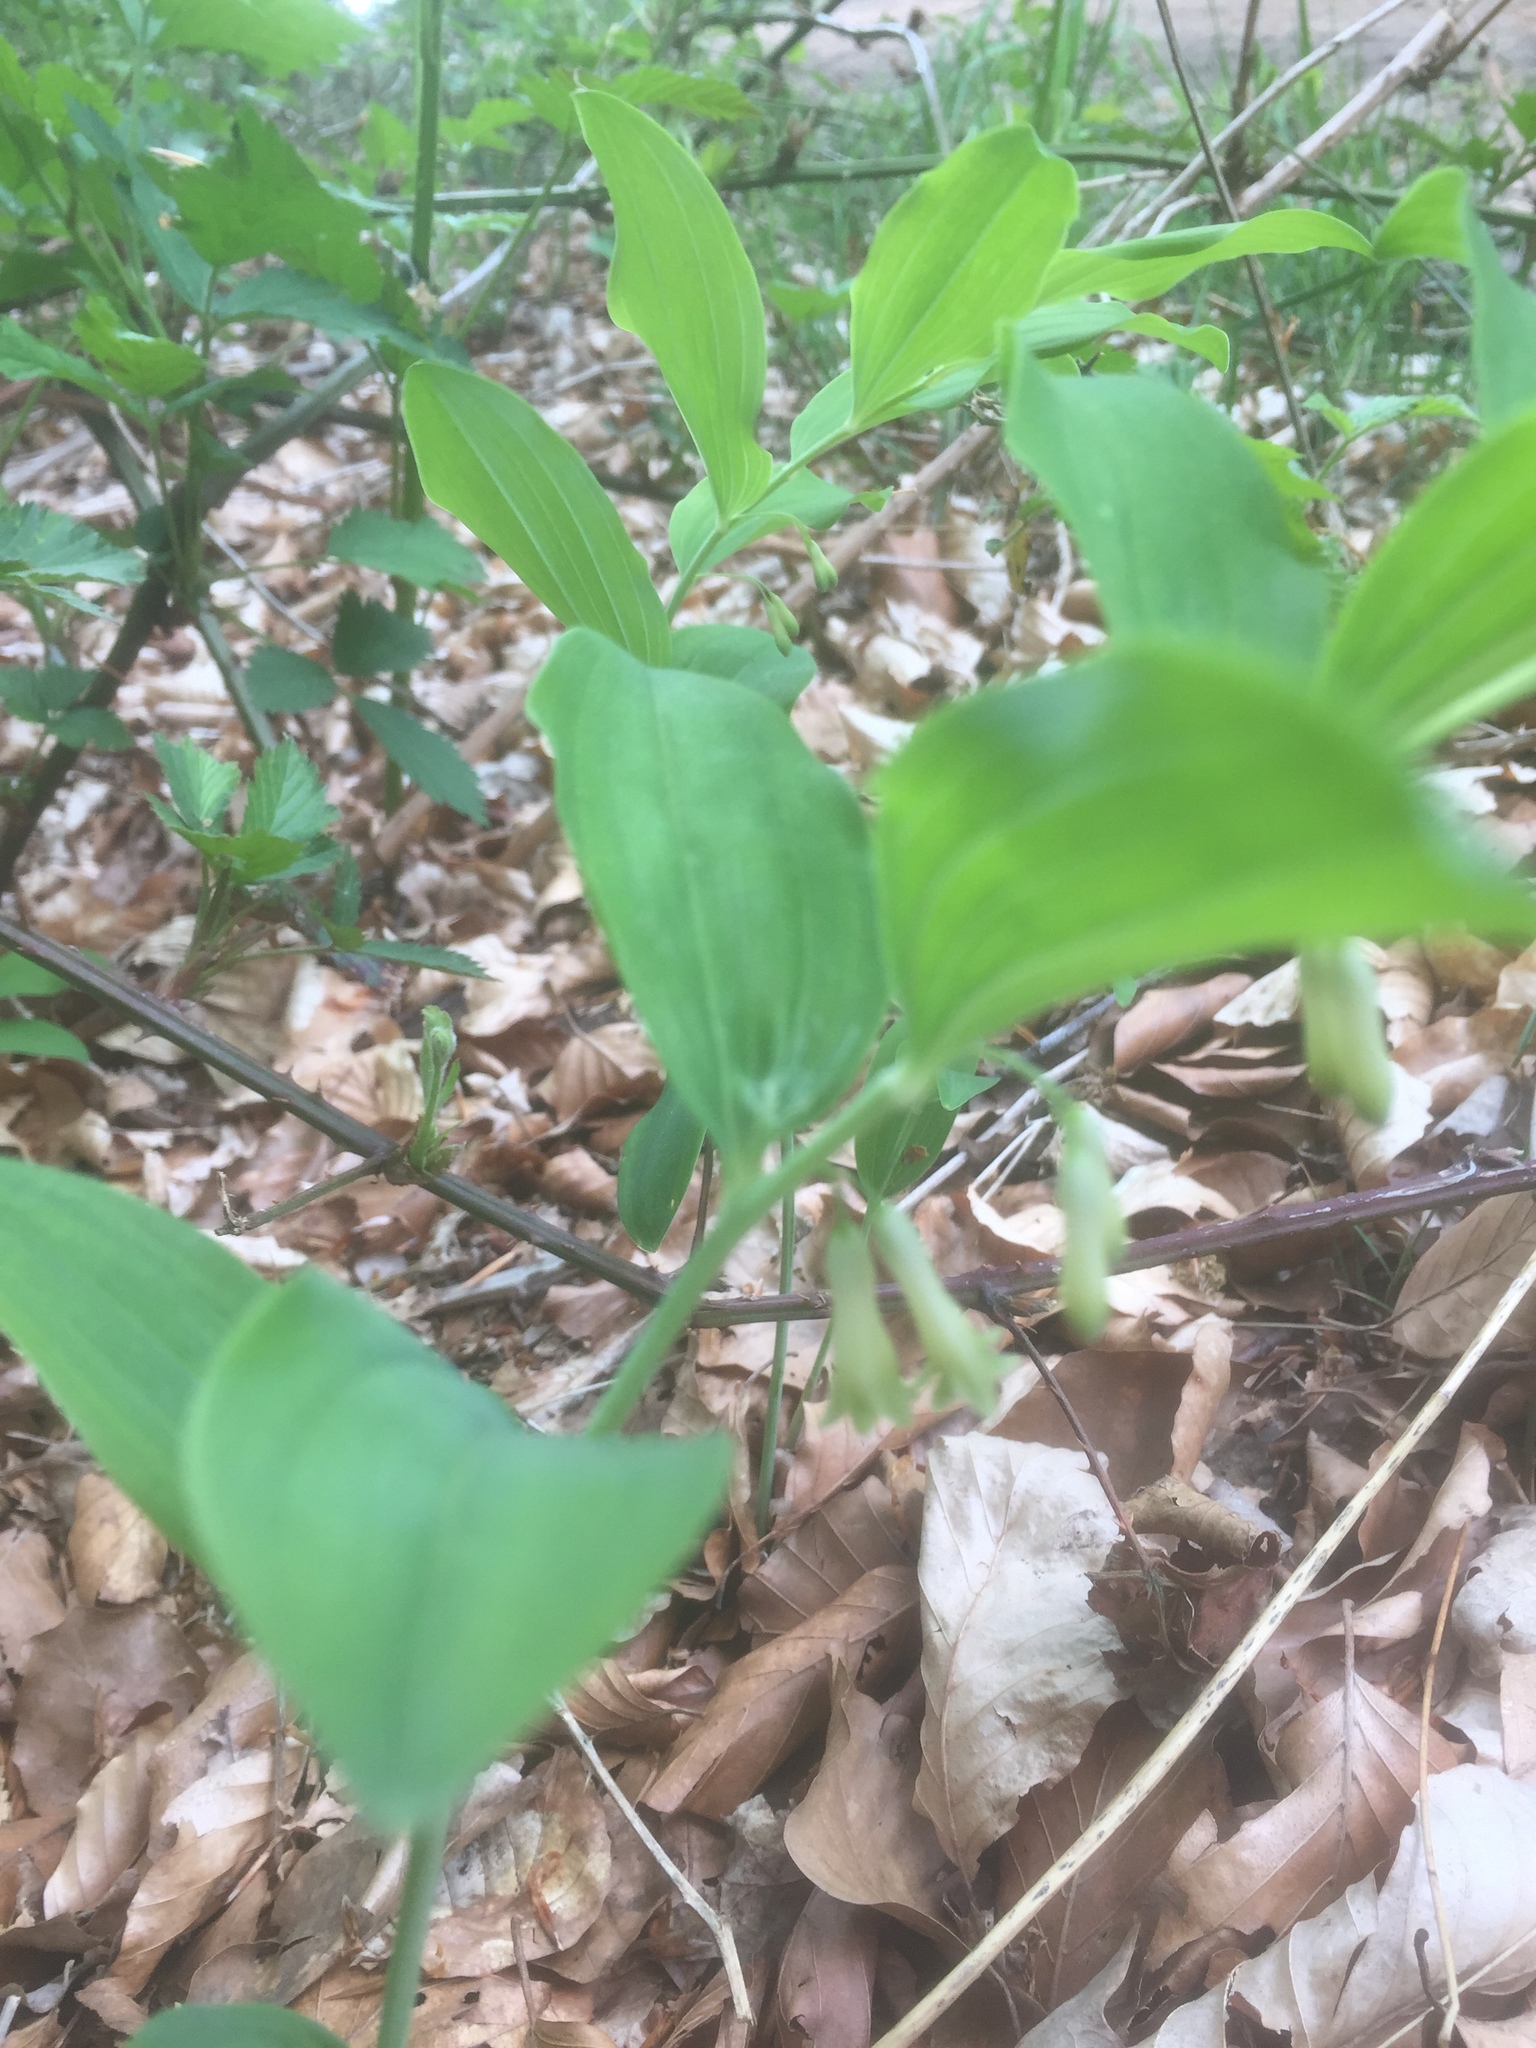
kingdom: Plantae
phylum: Tracheophyta
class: Liliopsida
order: Asparagales
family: Asparagaceae
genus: Polygonatum
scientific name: Polygonatum multiflorum
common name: Solomon's-seal
